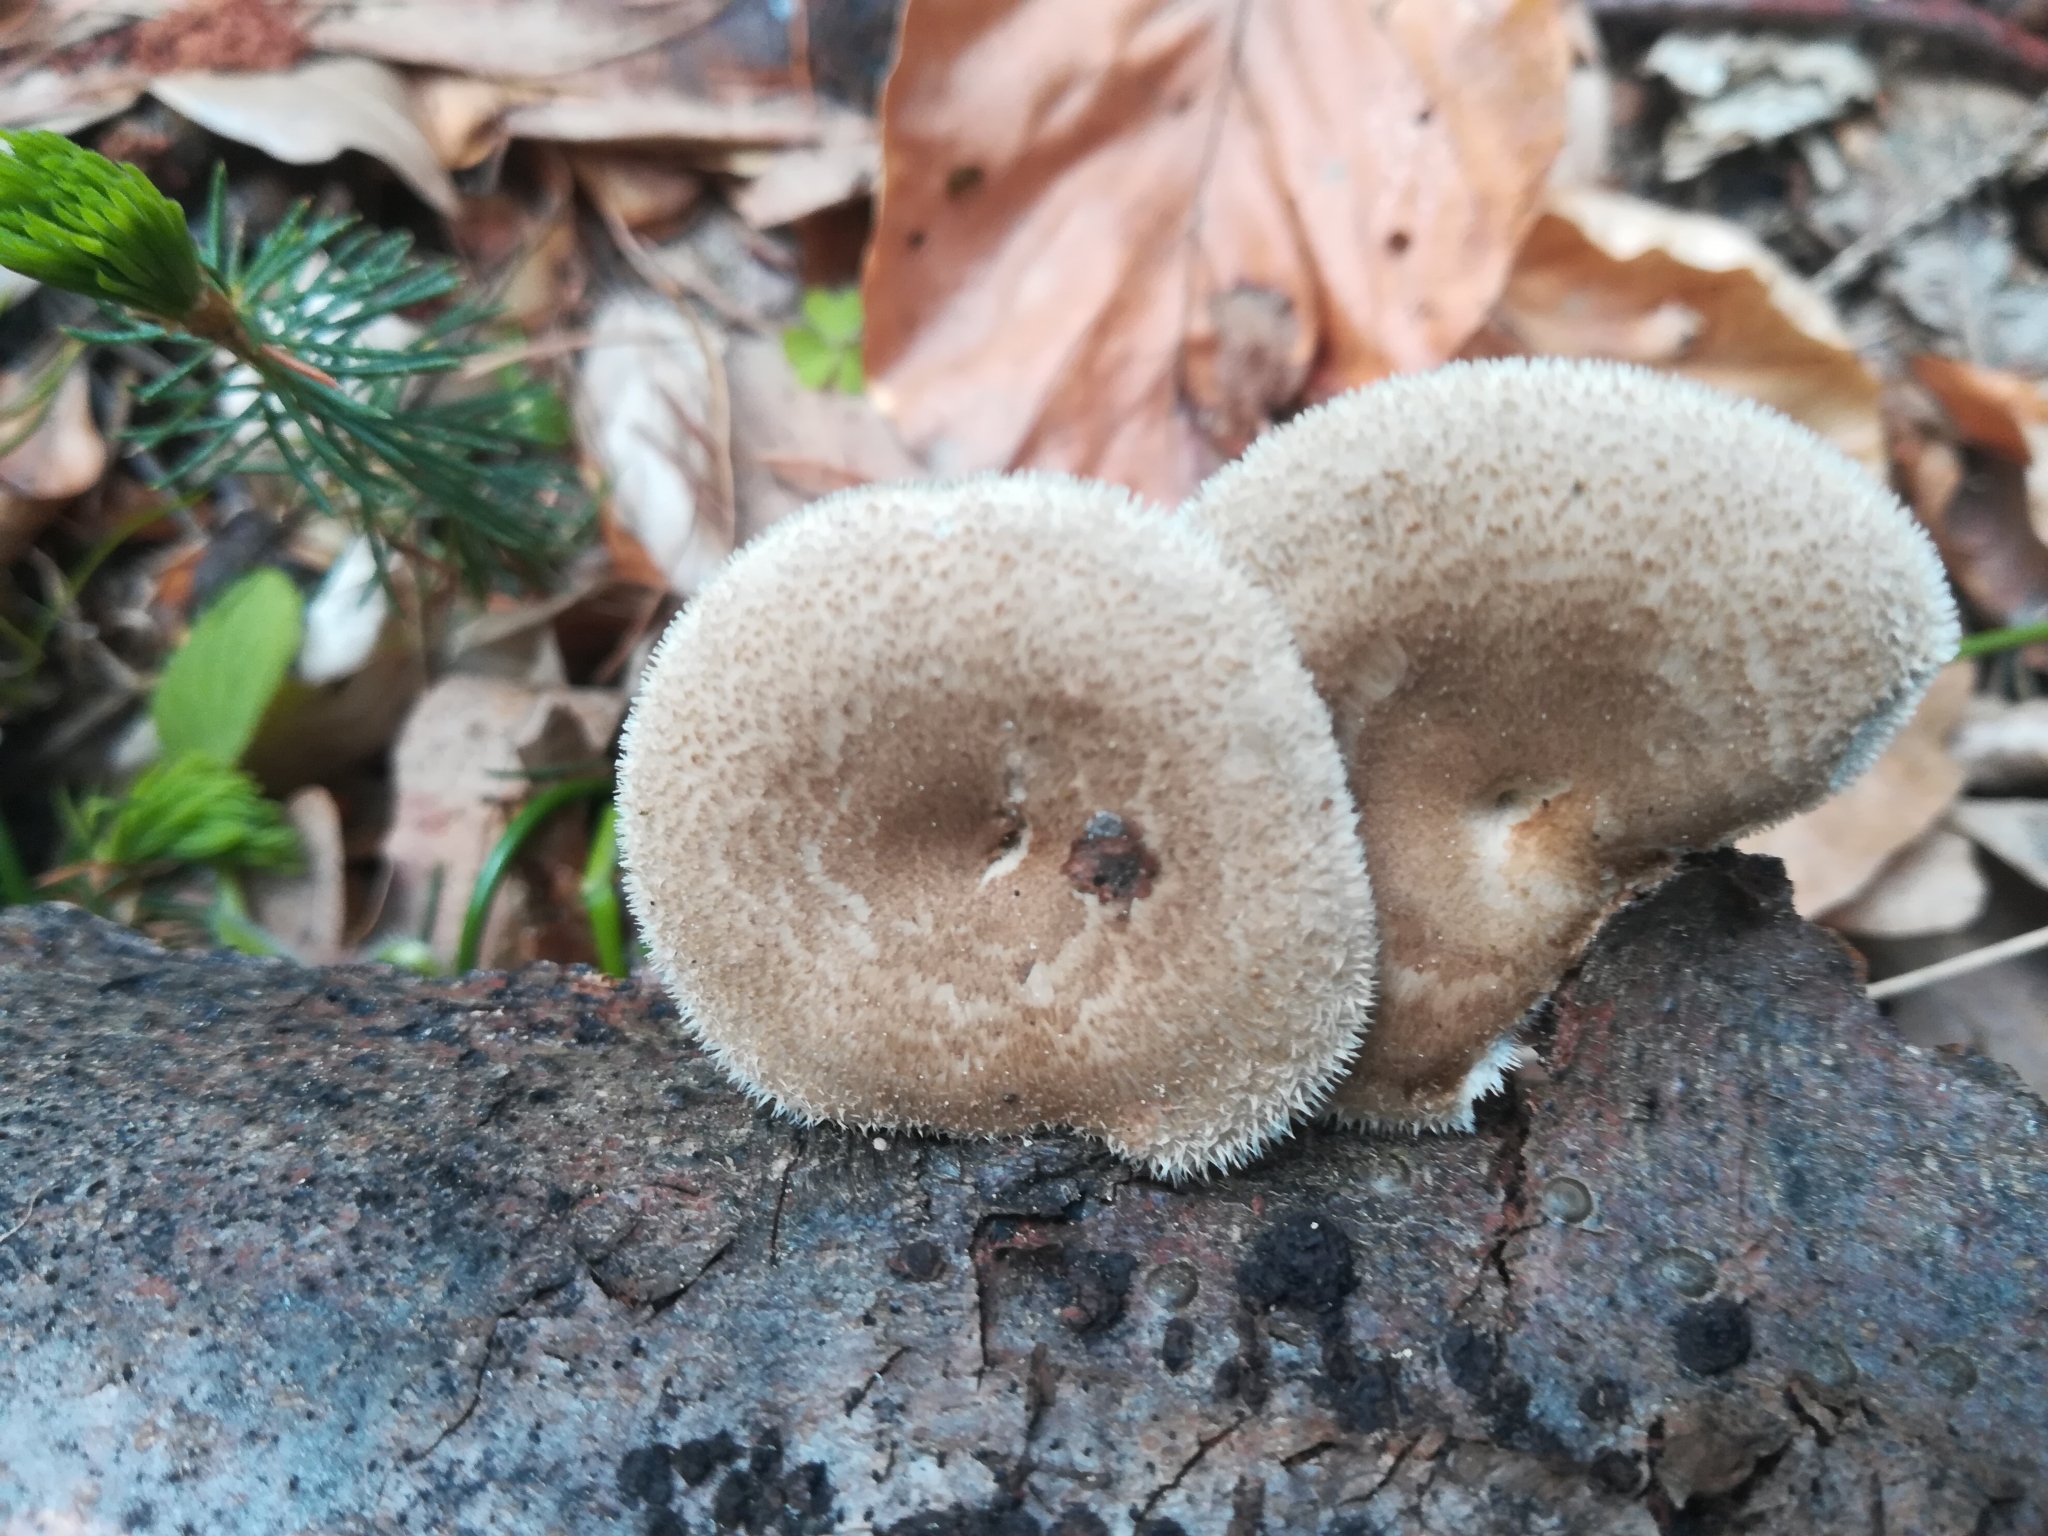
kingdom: Fungi
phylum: Basidiomycota
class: Agaricomycetes
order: Polyporales
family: Polyporaceae
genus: Lentinus
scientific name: Lentinus arcularius
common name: Spring polypore
